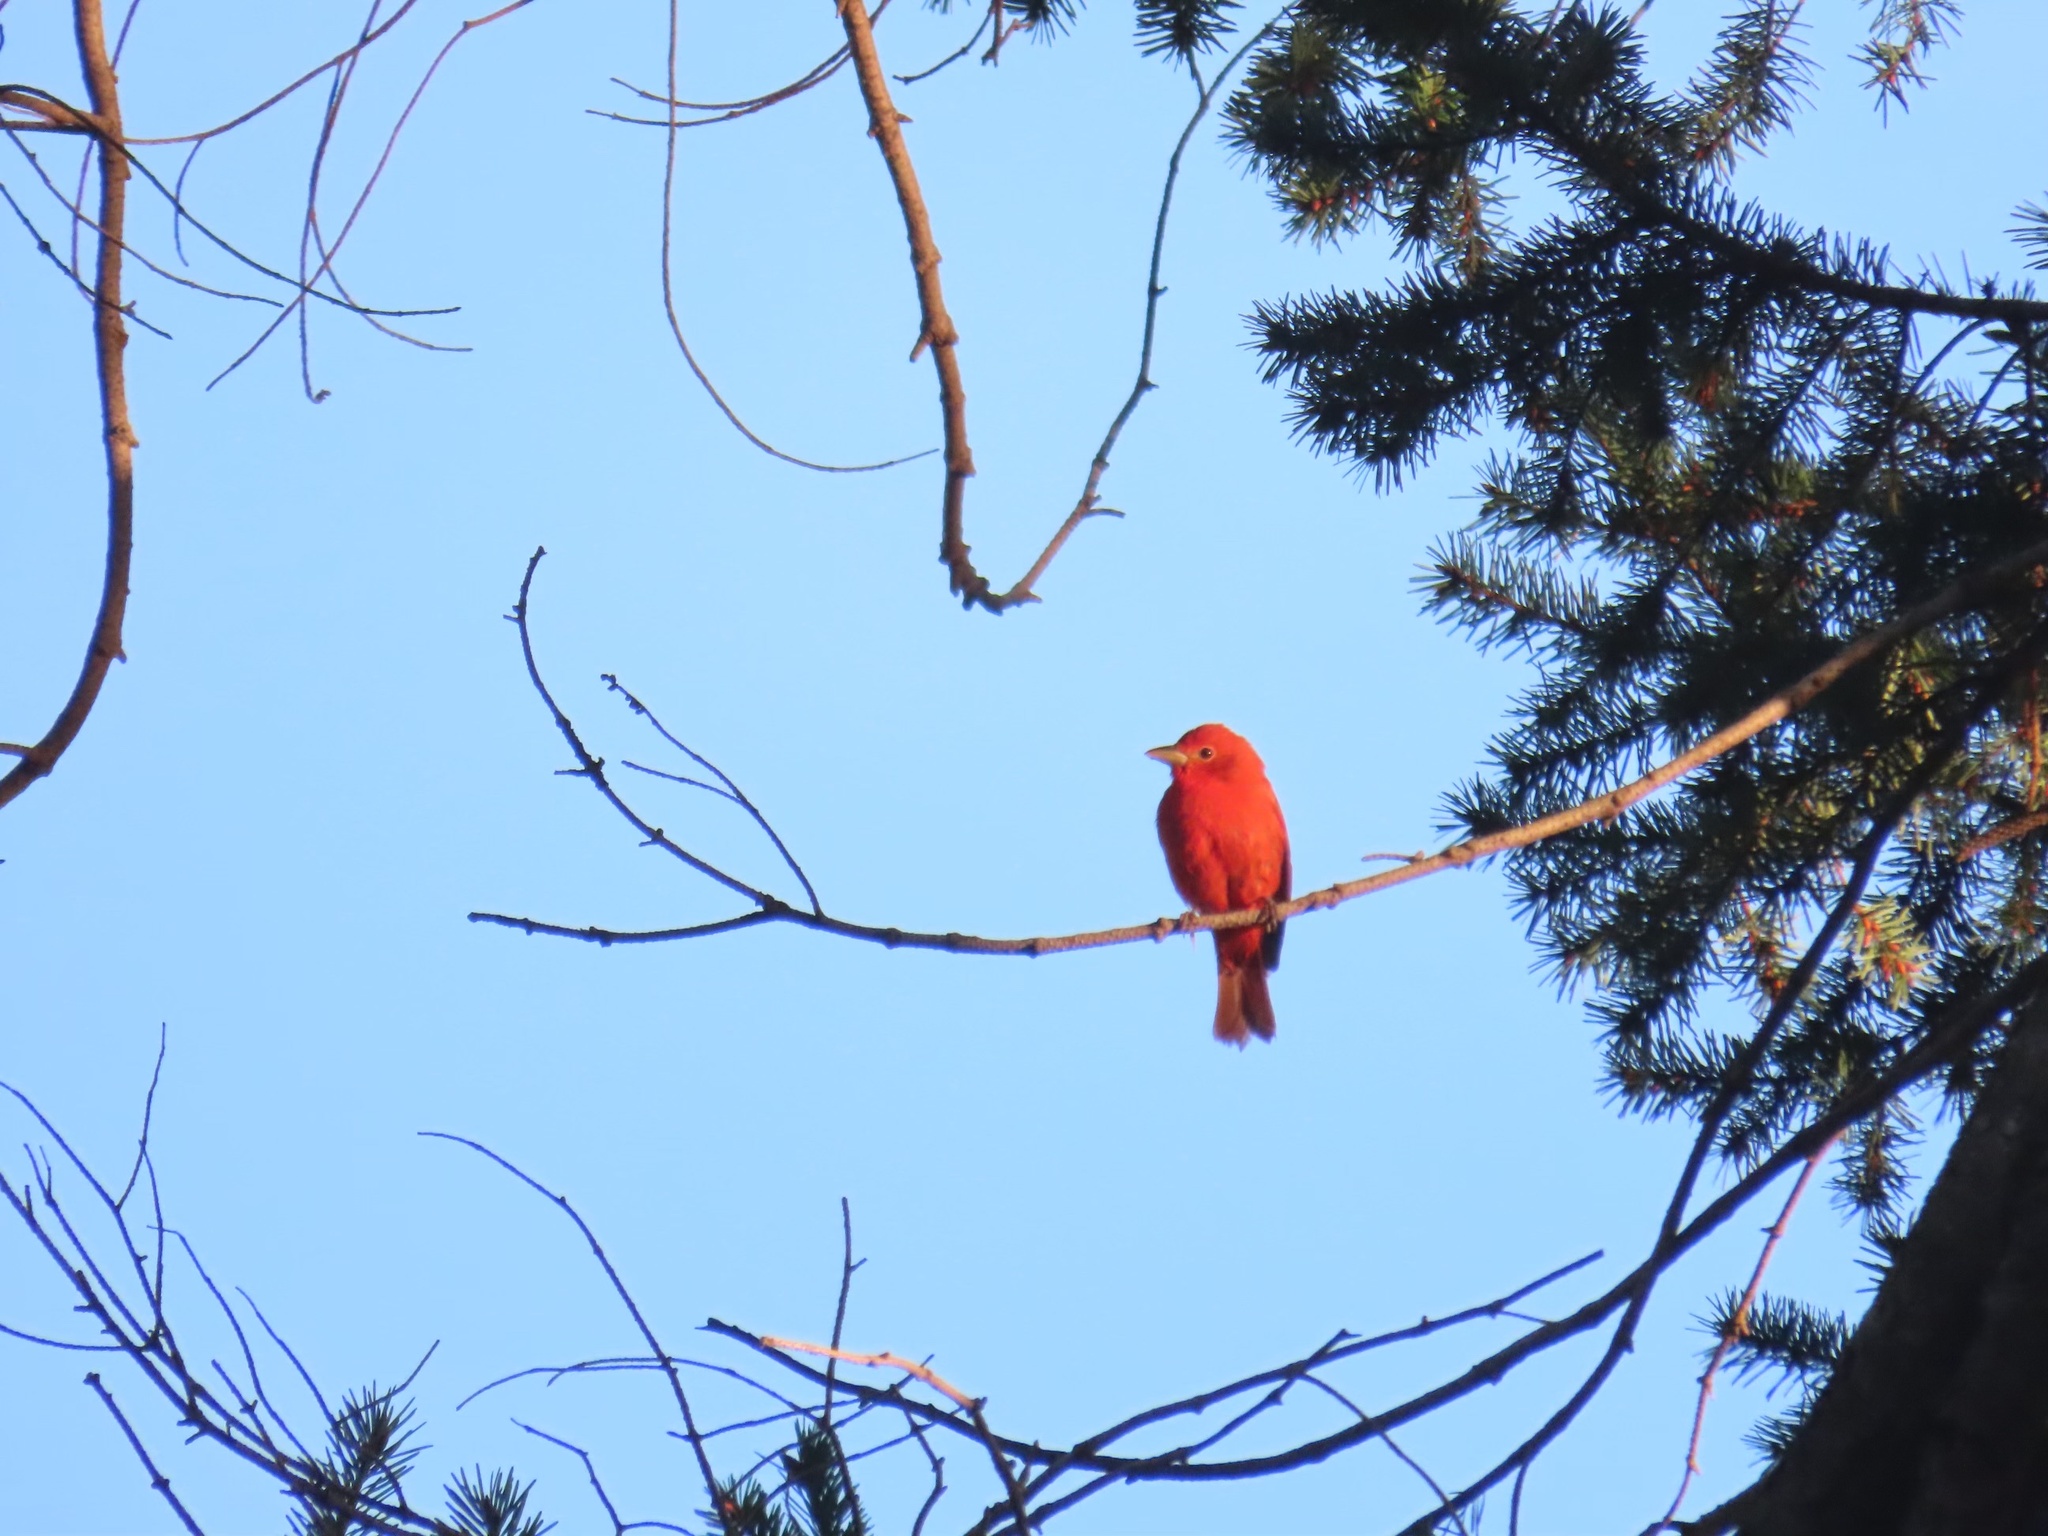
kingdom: Animalia
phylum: Chordata
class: Aves
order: Passeriformes
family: Cardinalidae
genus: Piranga
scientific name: Piranga rubra
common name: Summer tanager
